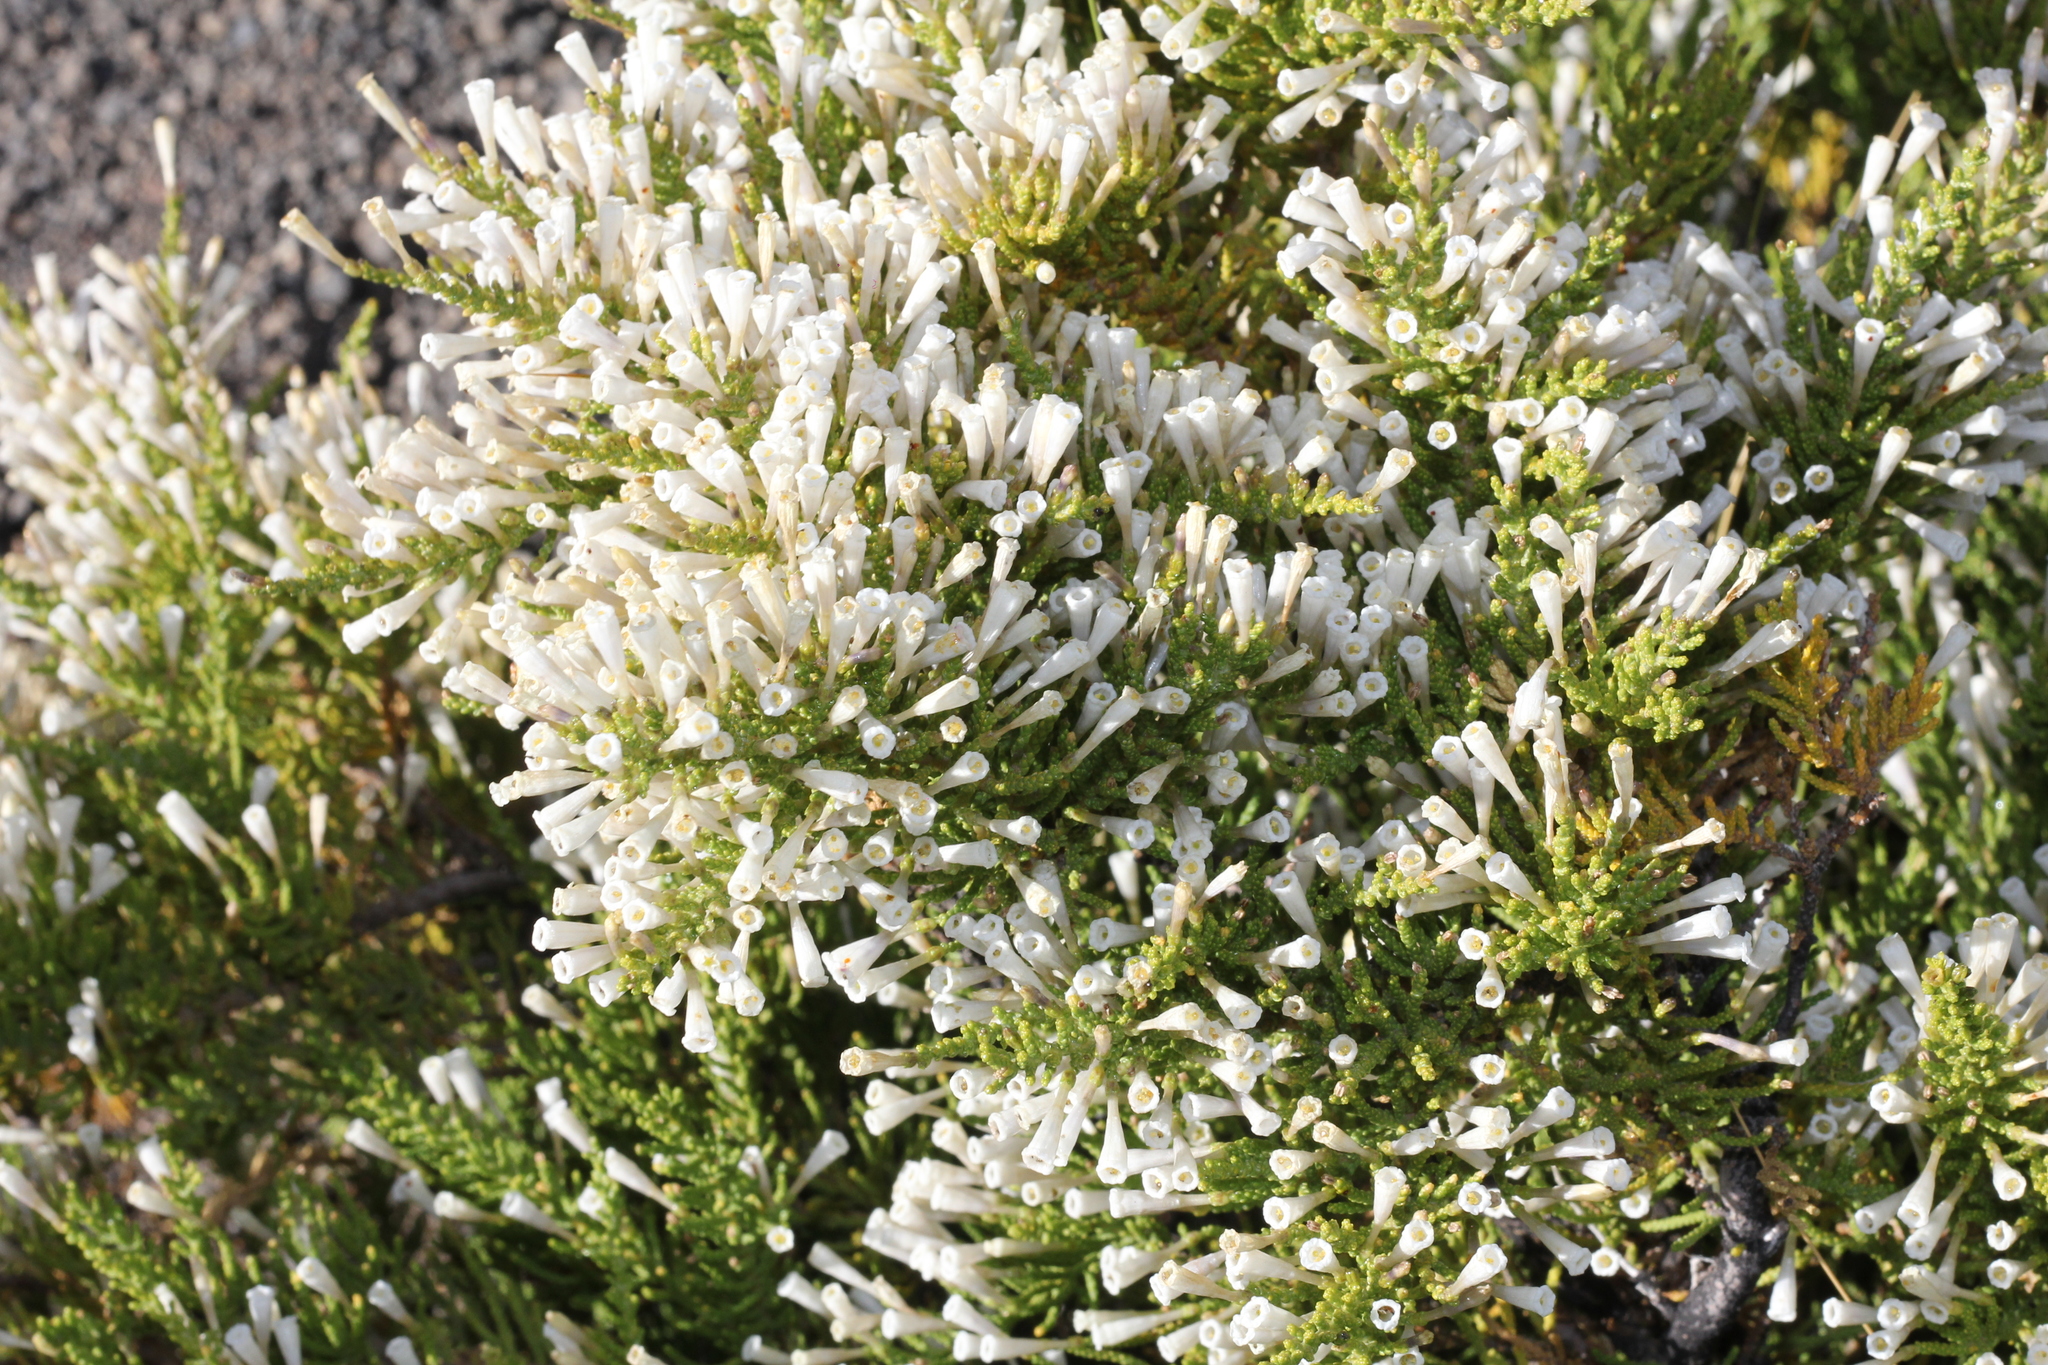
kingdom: Plantae
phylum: Tracheophyta
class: Magnoliopsida
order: Solanales
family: Solanaceae
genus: Fabiana
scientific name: Fabiana imbricata
